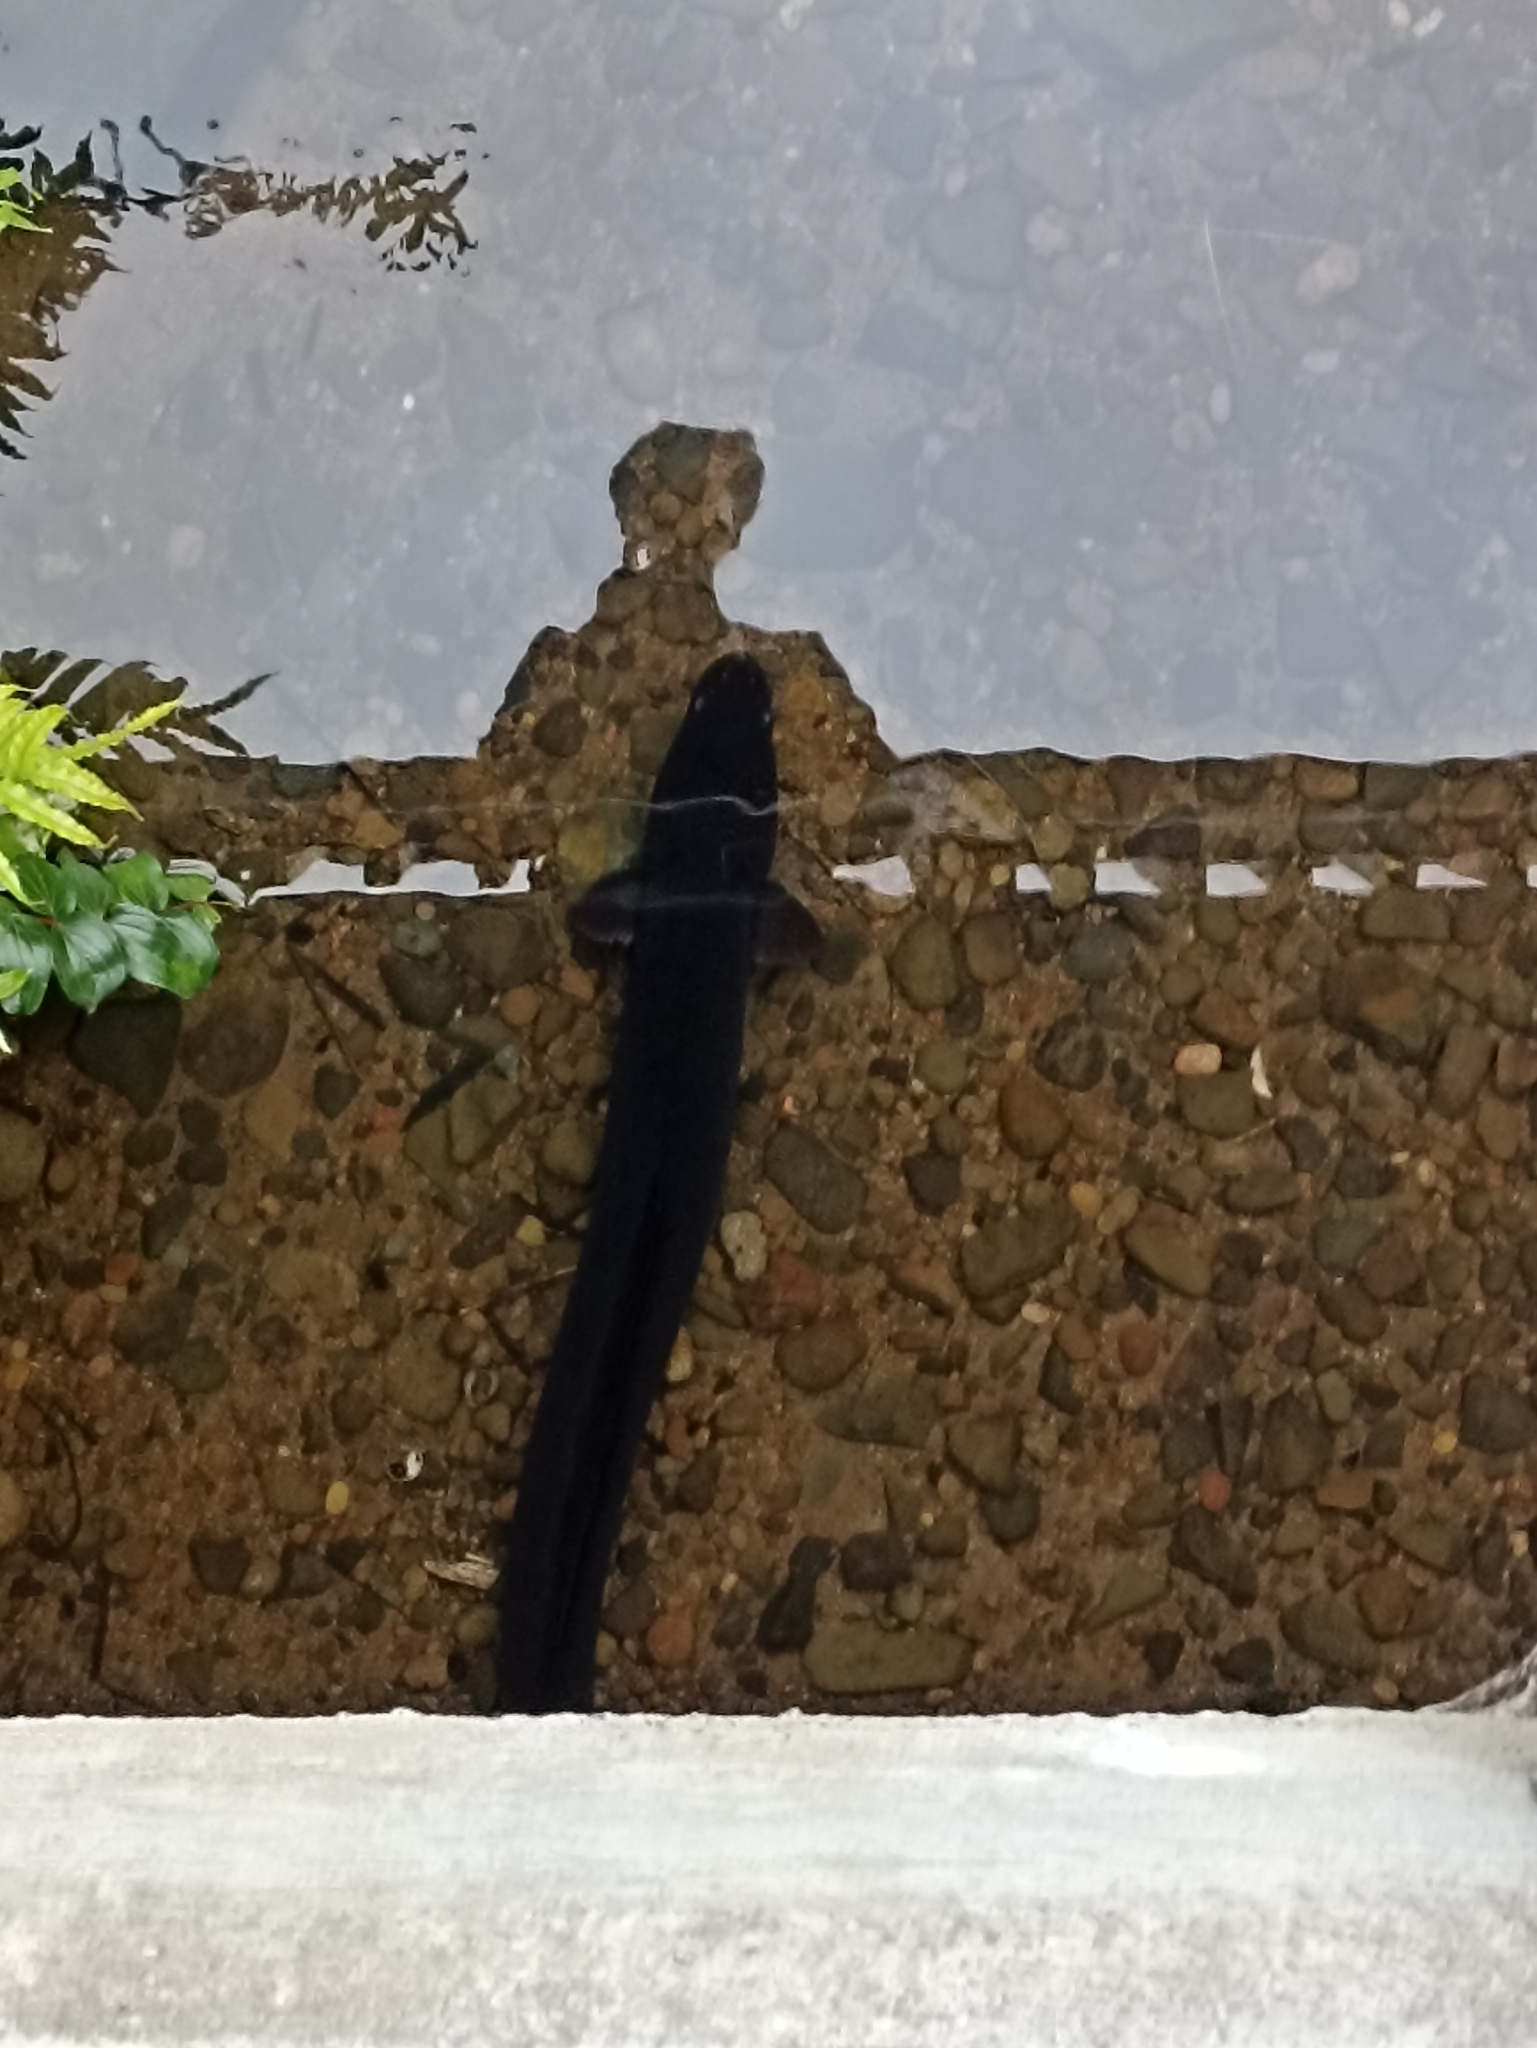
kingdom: Animalia
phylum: Chordata
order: Anguilliformes
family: Anguillidae
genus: Anguilla
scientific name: Anguilla dieffenbachii
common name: New zealand longfin eel
